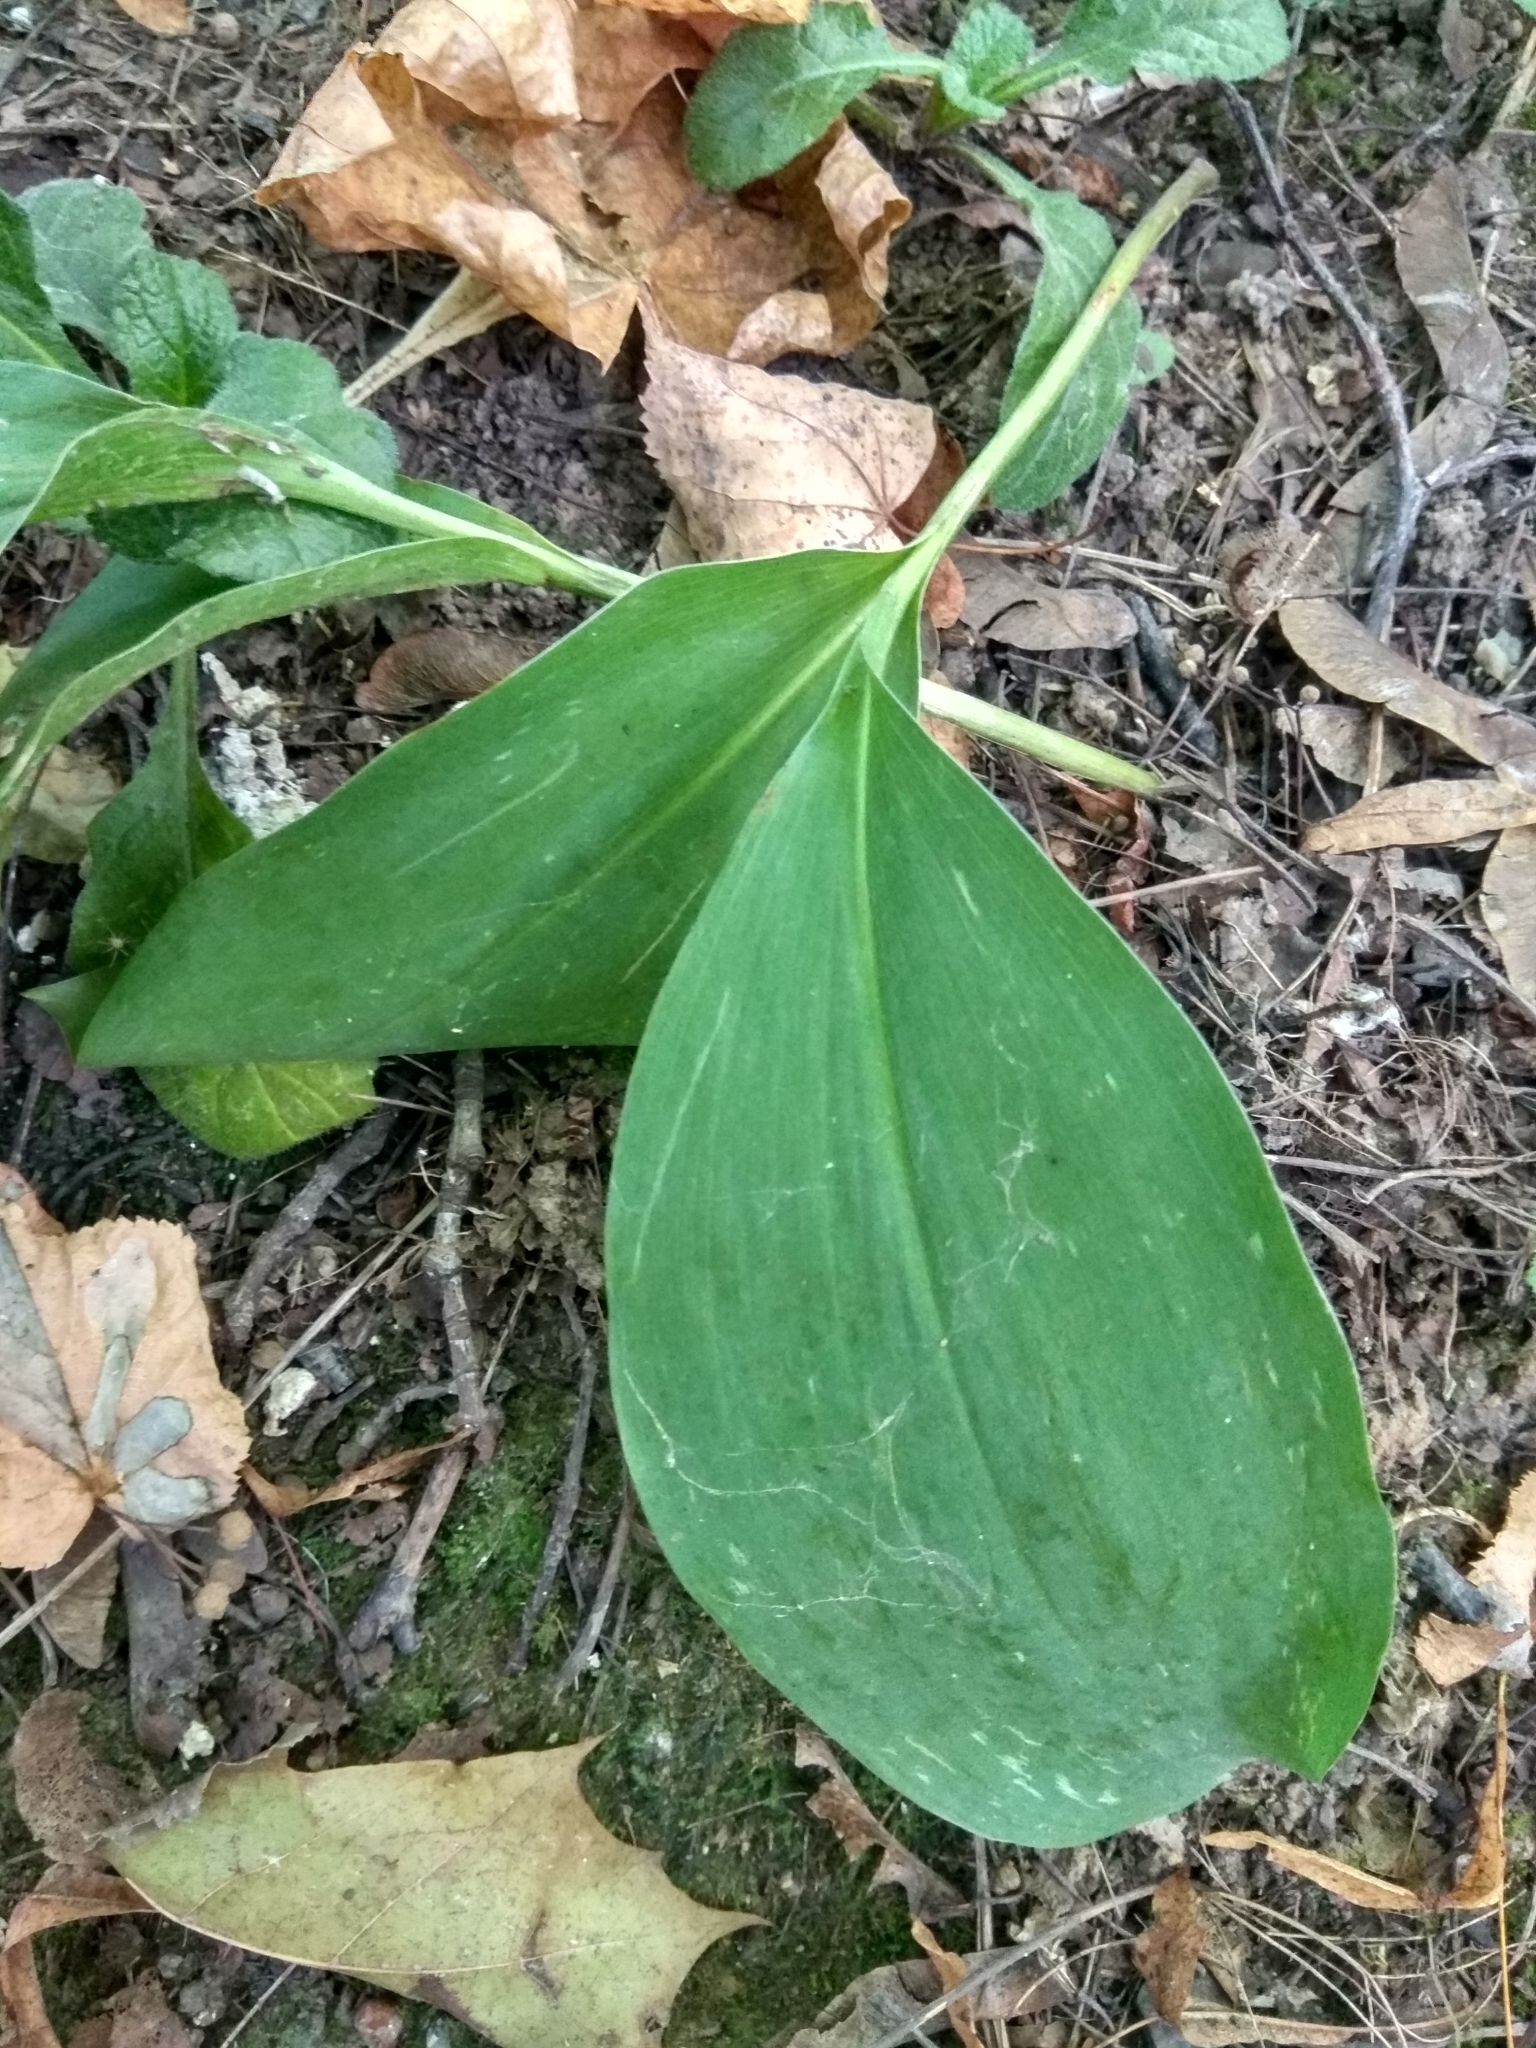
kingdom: Plantae
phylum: Tracheophyta
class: Liliopsida
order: Asparagales
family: Asparagaceae
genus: Convallaria
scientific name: Convallaria majalis
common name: Lily-of-the-valley
